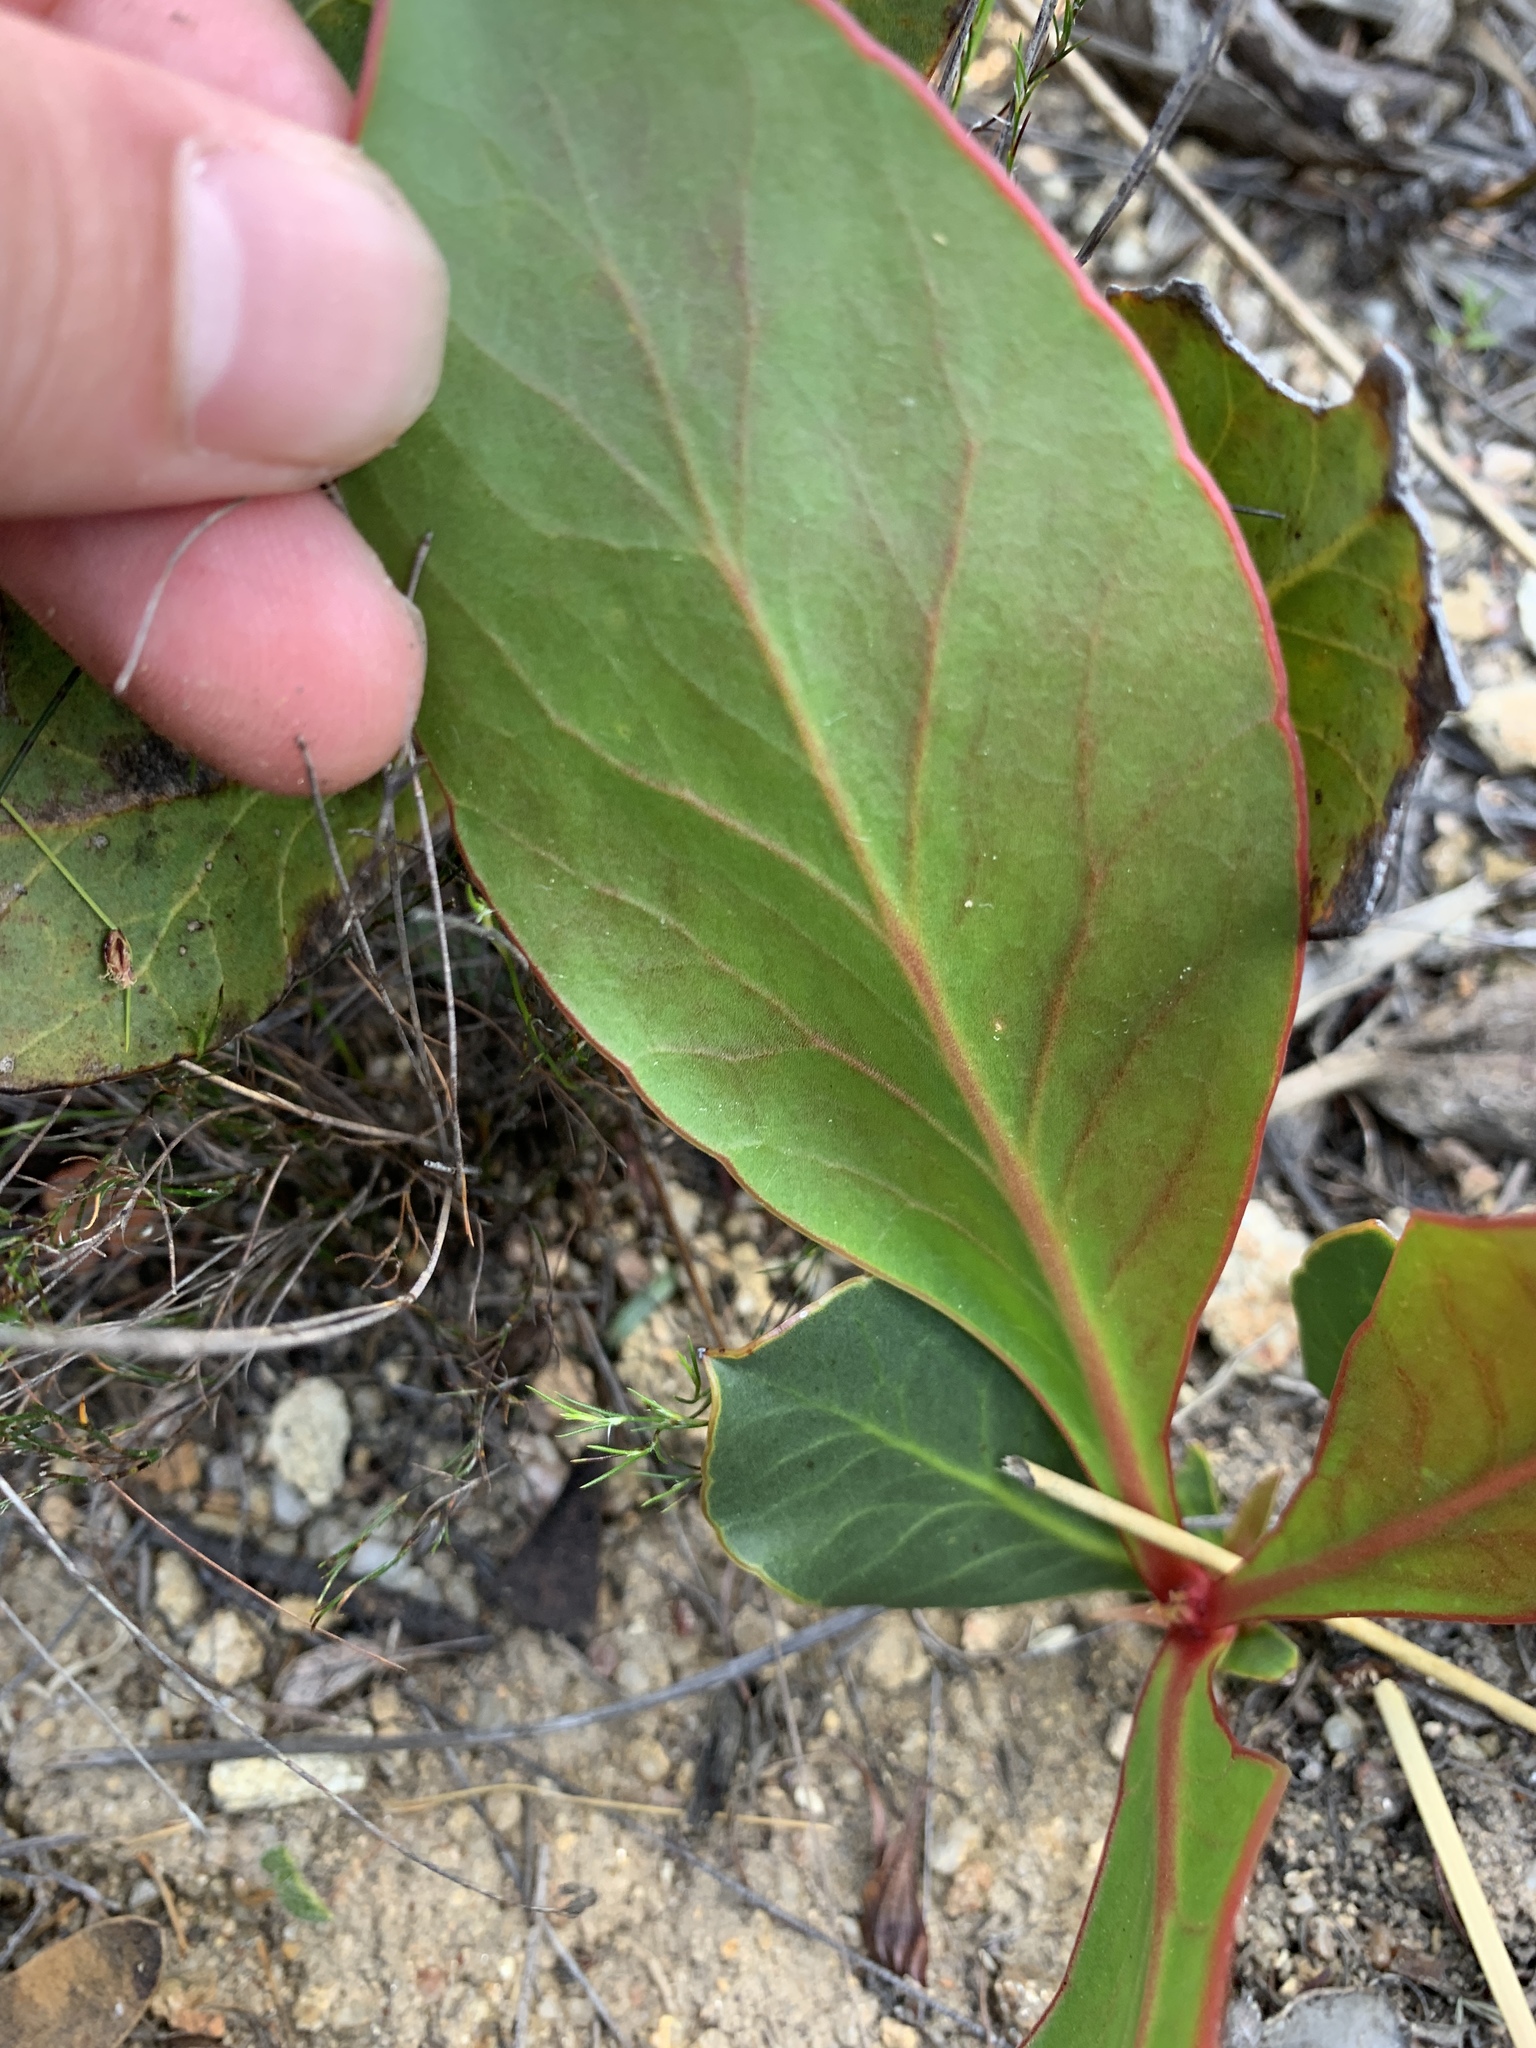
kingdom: Plantae
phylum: Tracheophyta
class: Magnoliopsida
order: Proteales
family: Proteaceae
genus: Protea
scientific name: Protea acaulos
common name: Common ground sugarbush
